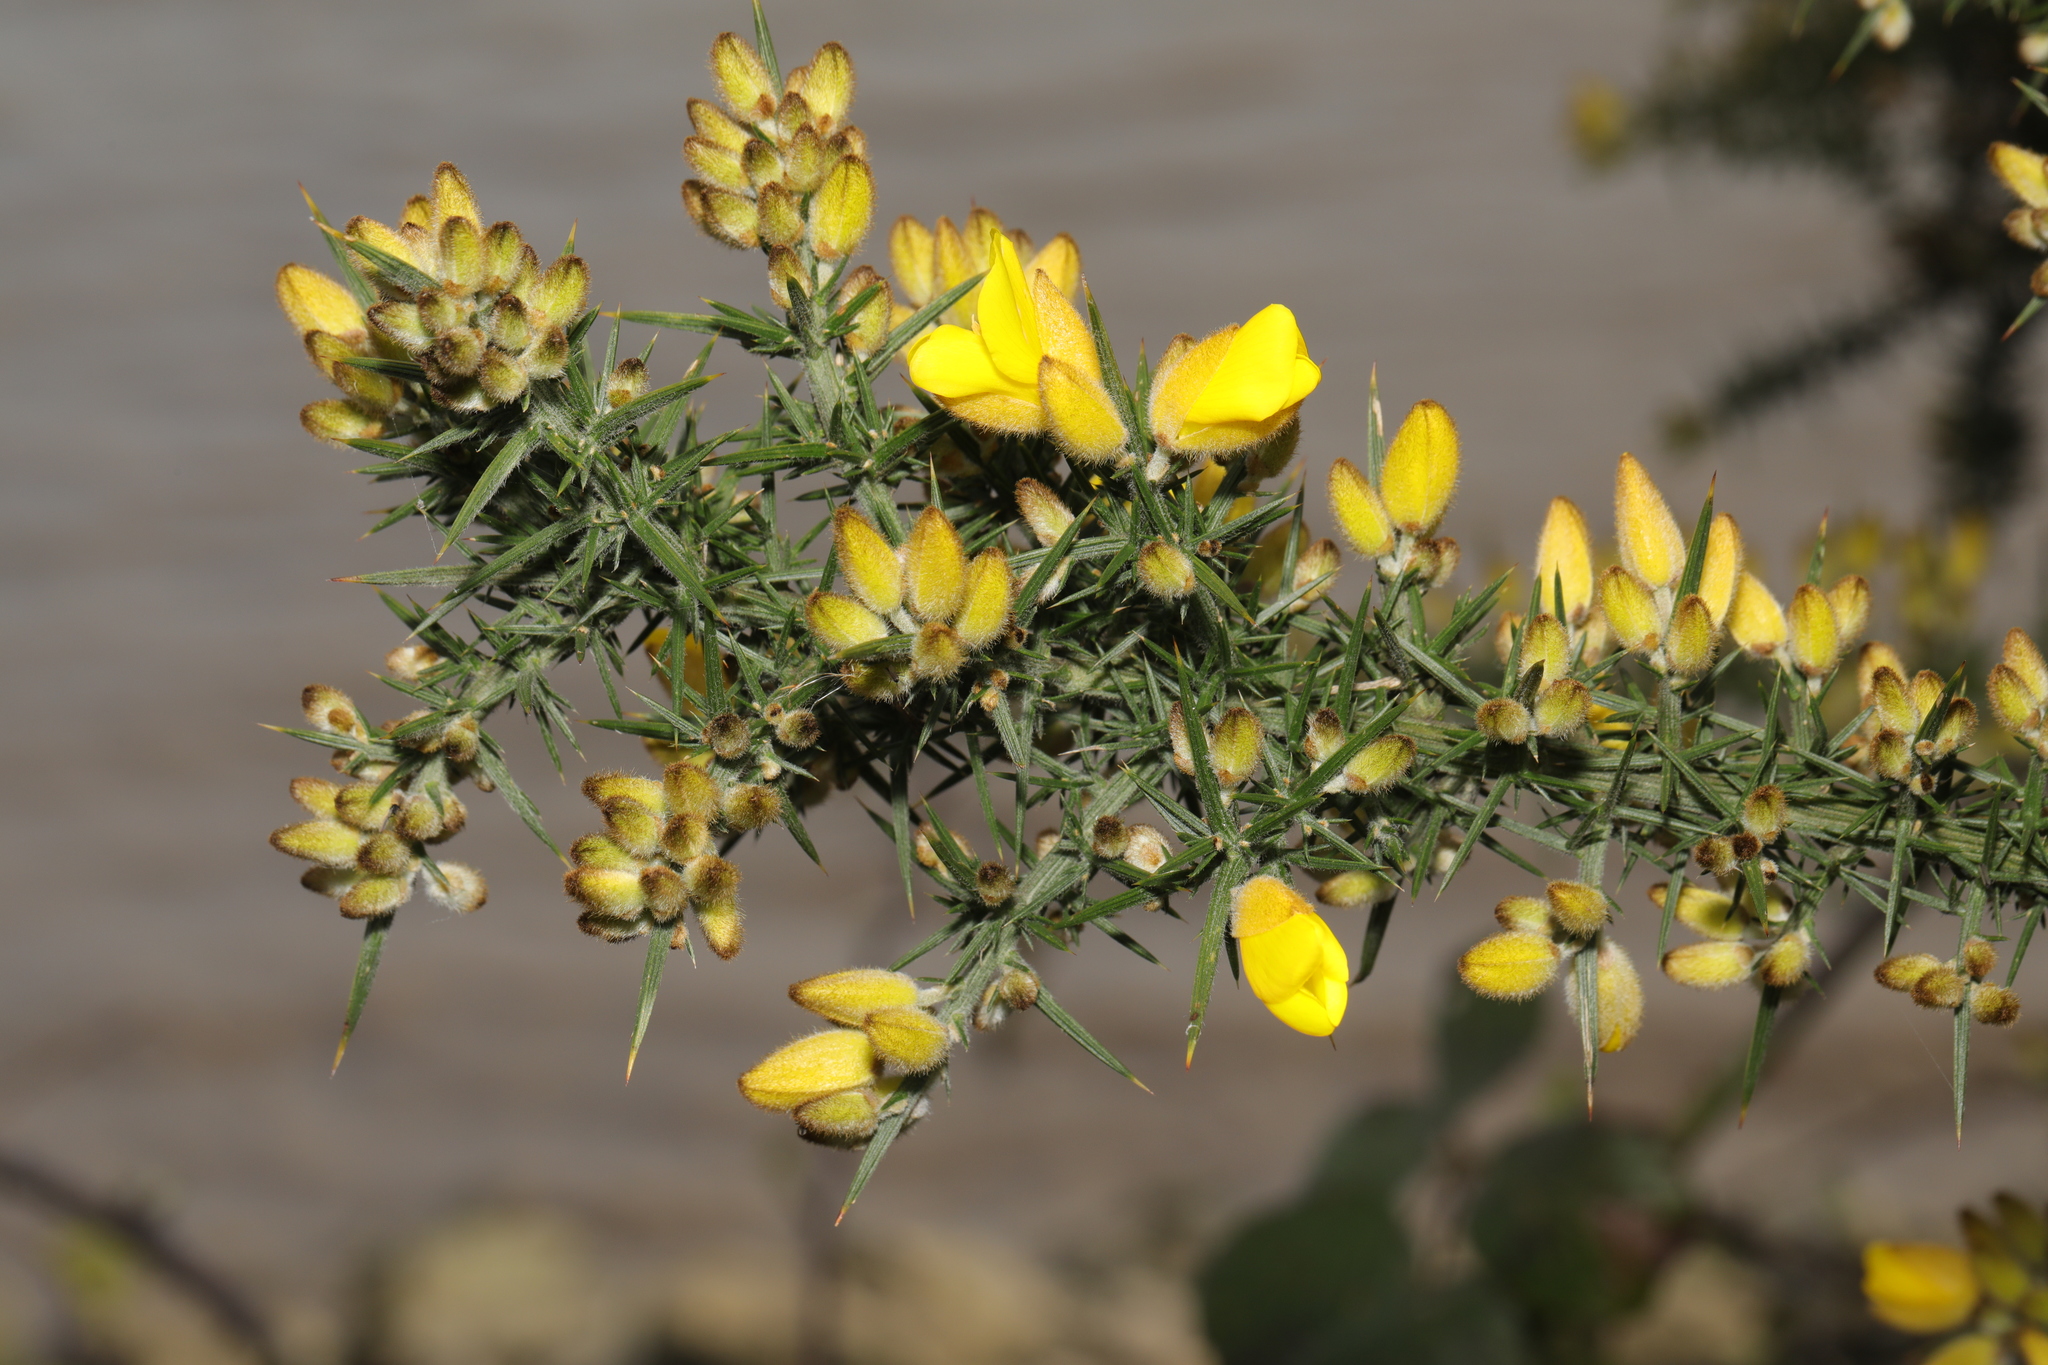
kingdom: Plantae
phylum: Tracheophyta
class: Magnoliopsida
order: Fabales
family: Fabaceae
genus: Ulex
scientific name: Ulex europaeus
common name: Common gorse
